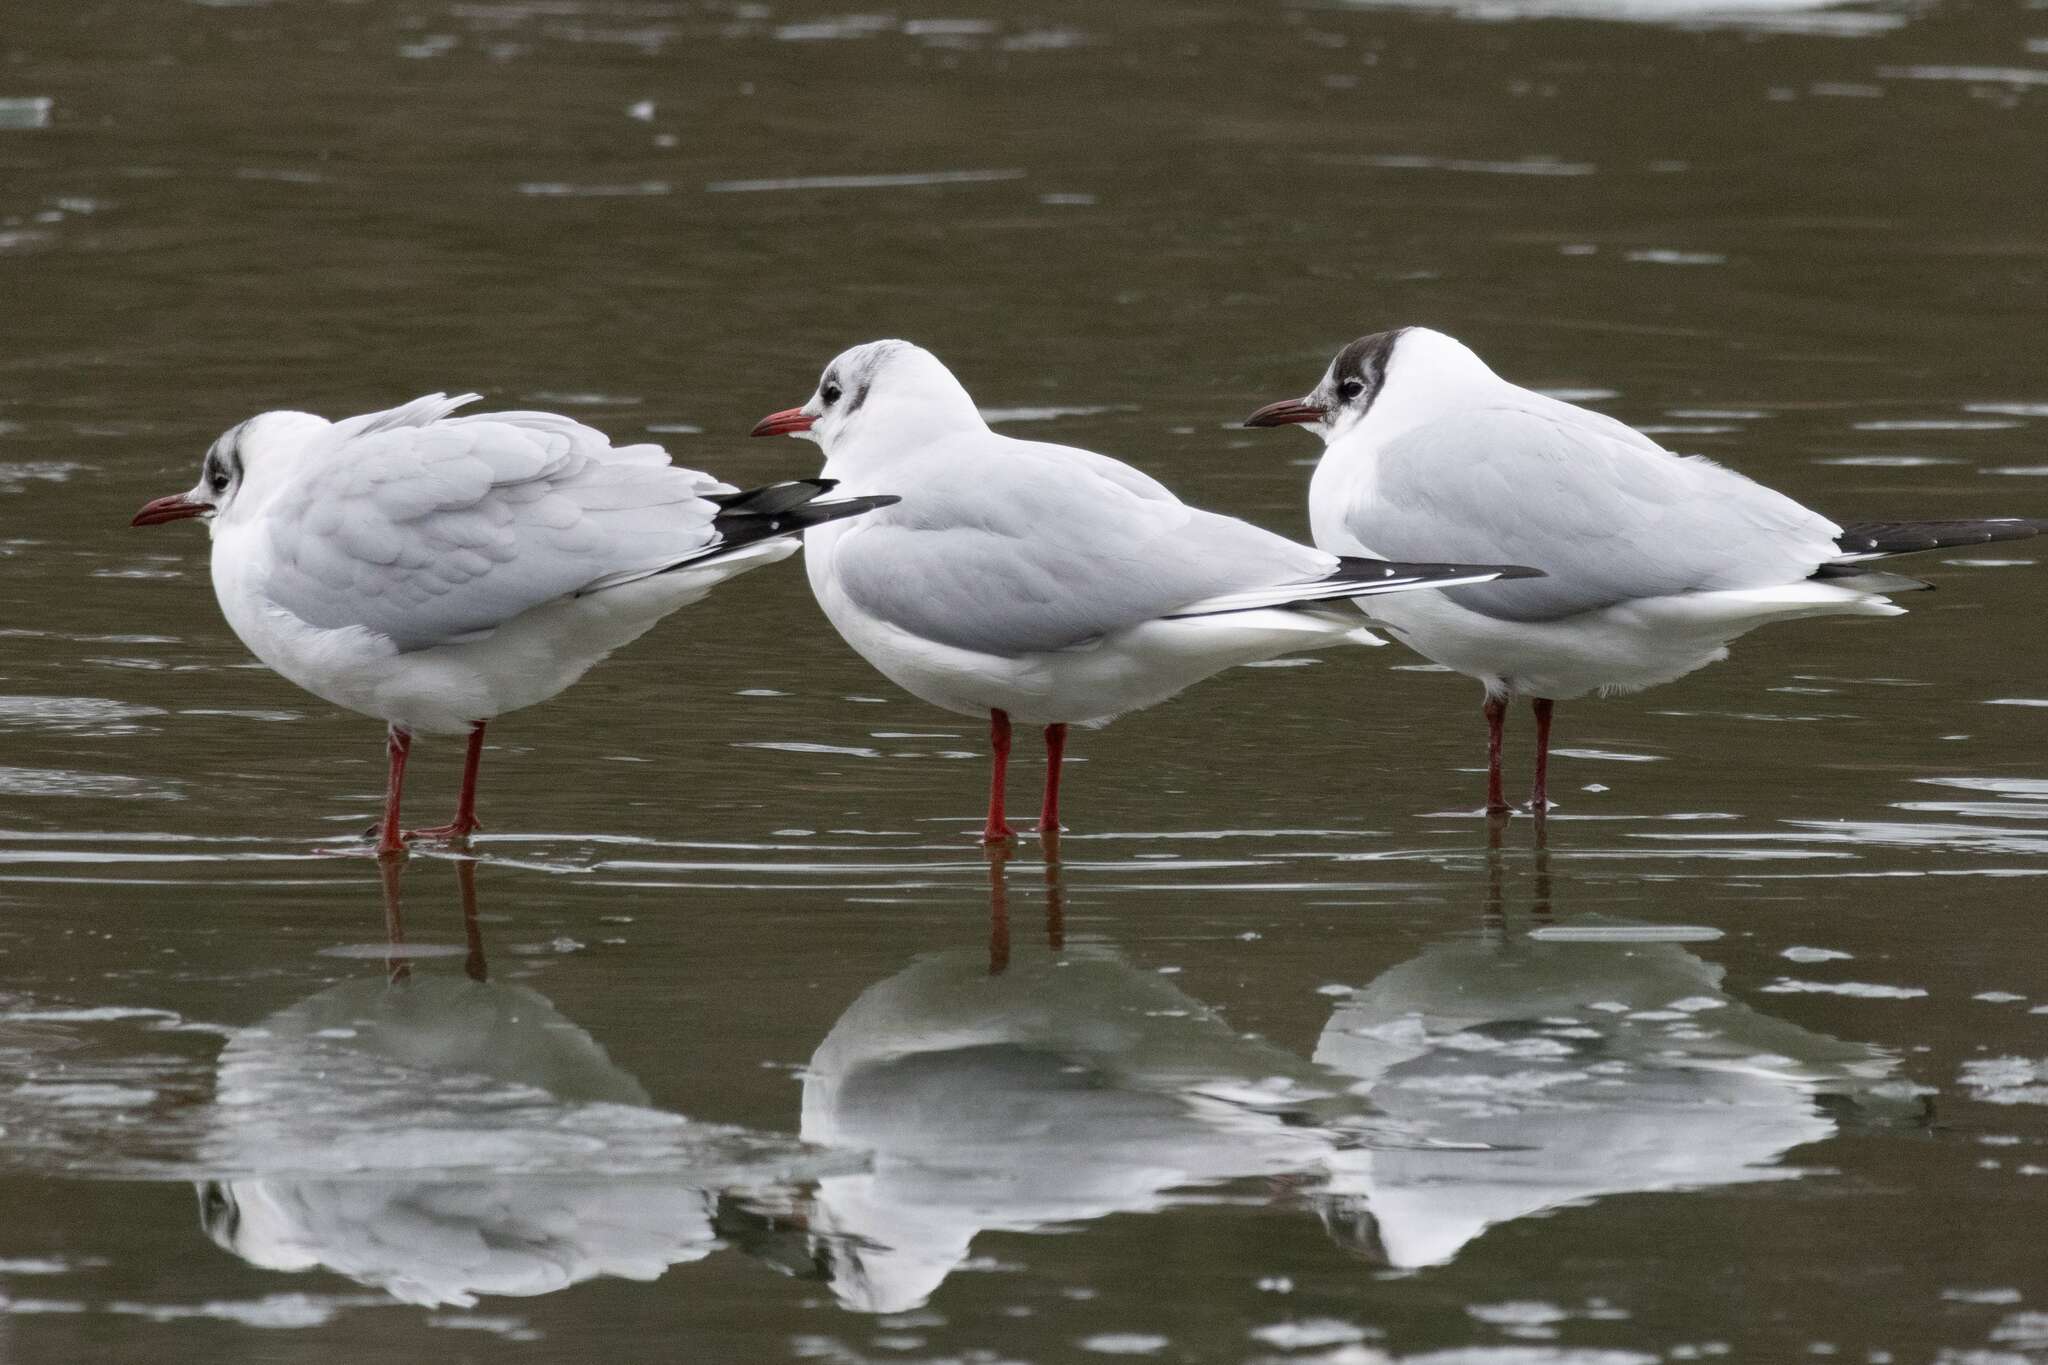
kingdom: Animalia
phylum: Chordata
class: Aves
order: Charadriiformes
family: Laridae
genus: Chroicocephalus
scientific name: Chroicocephalus ridibundus
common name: Black-headed gull
